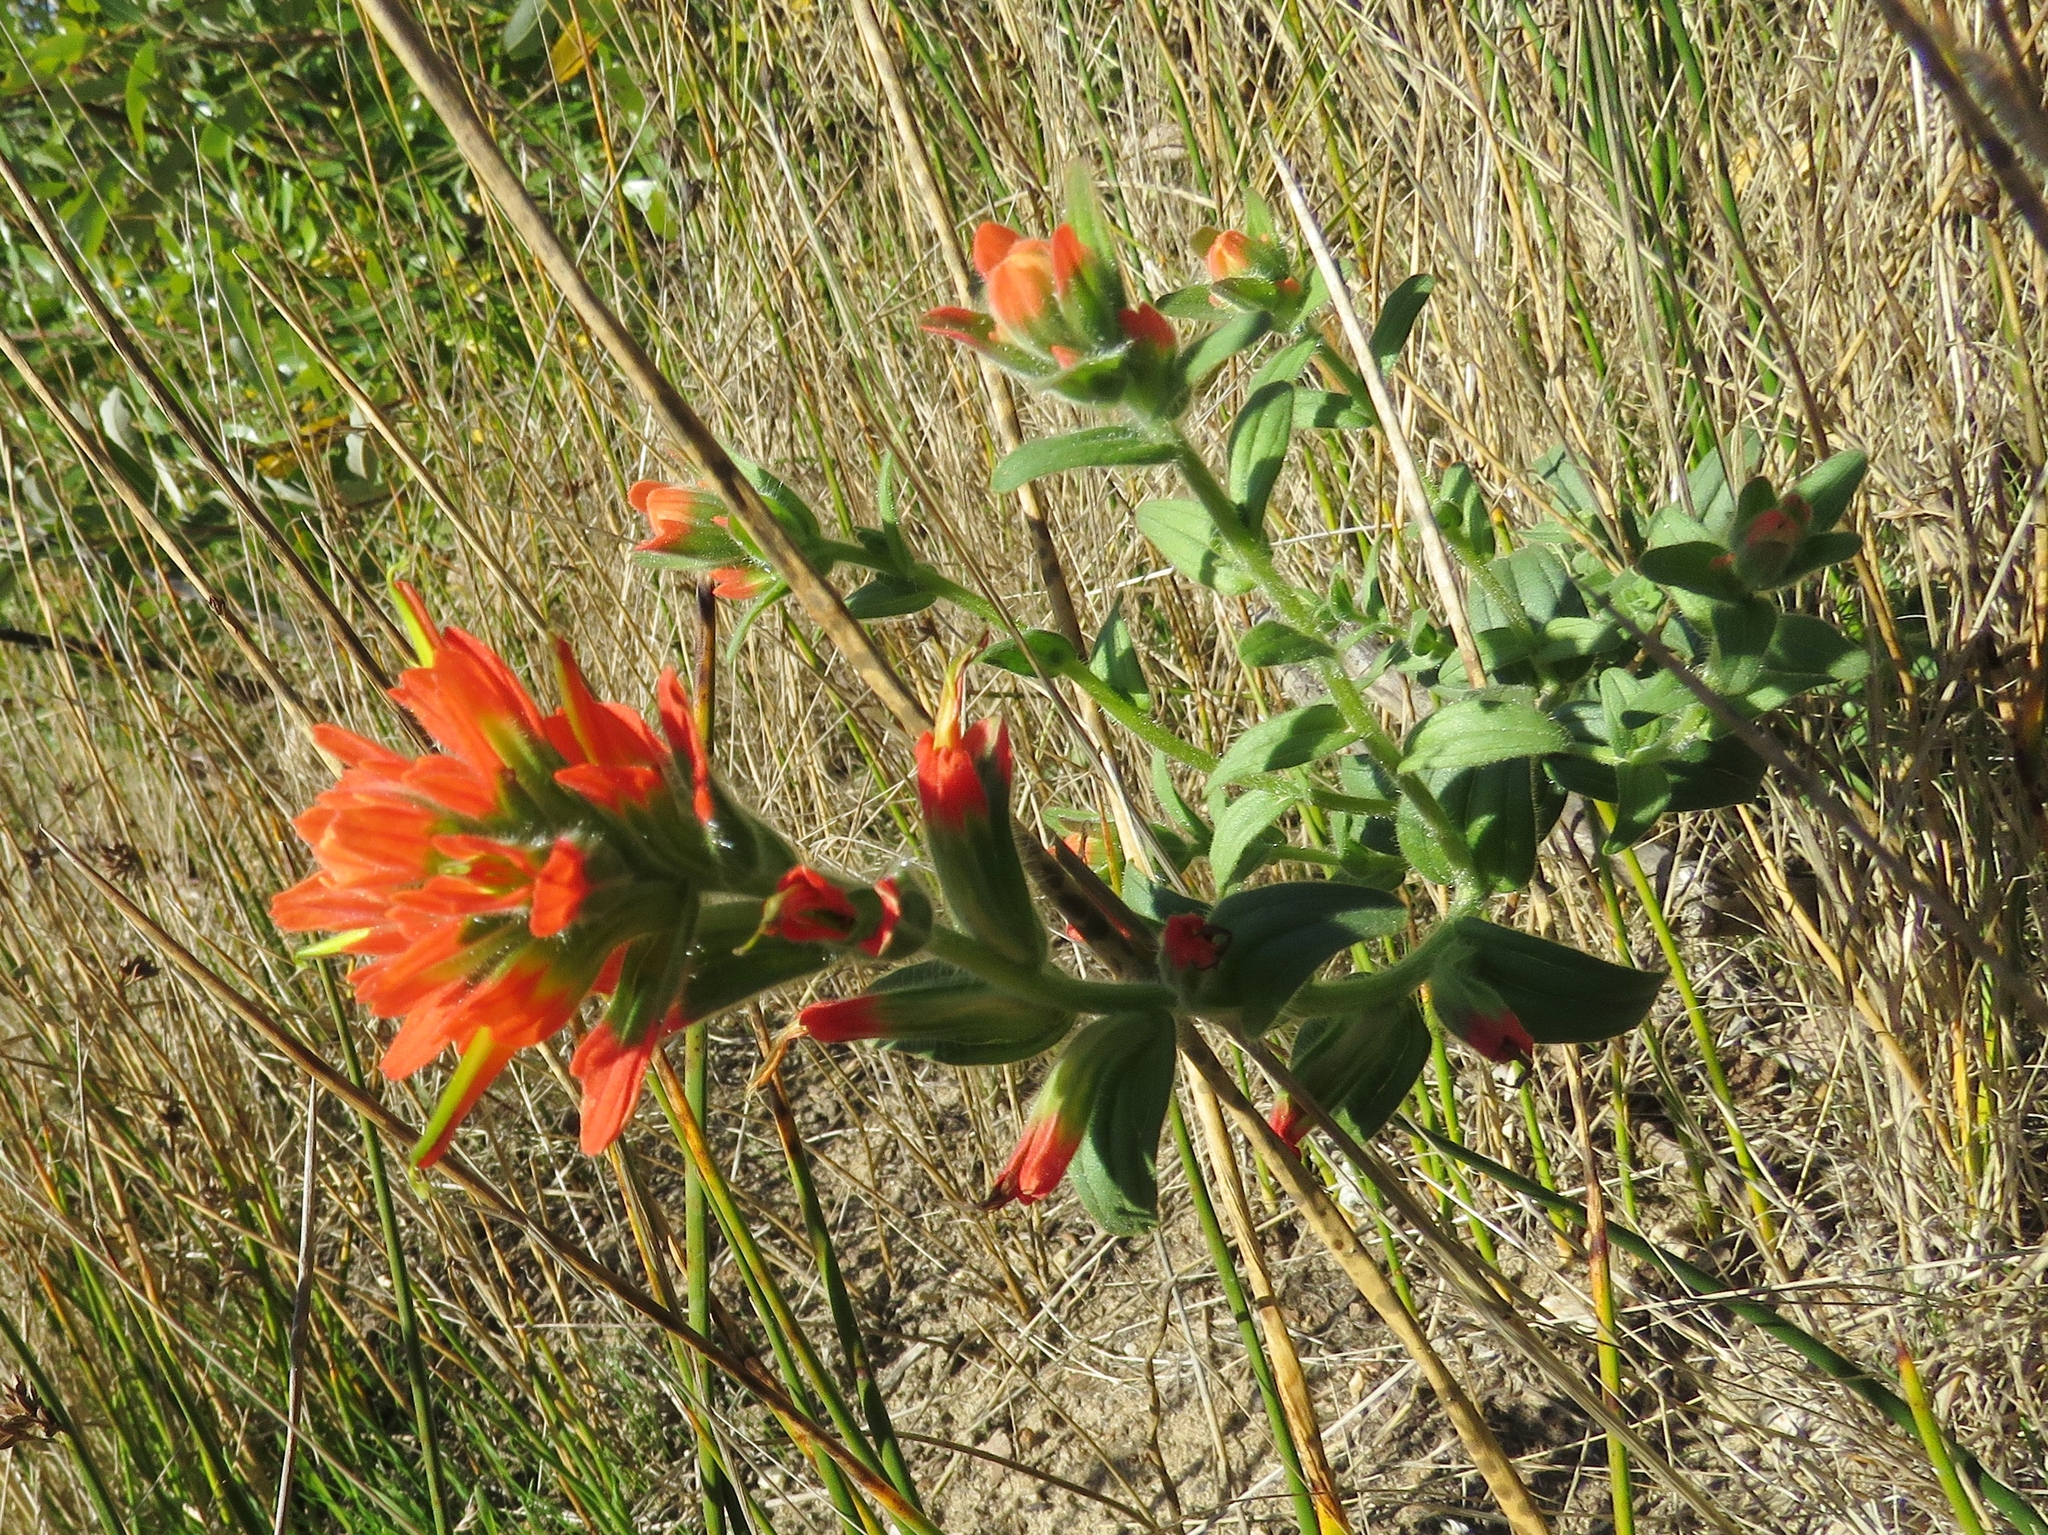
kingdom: Plantae
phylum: Tracheophyta
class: Magnoliopsida
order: Lamiales
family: Orobanchaceae
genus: Castilleja
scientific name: Castilleja affinis
